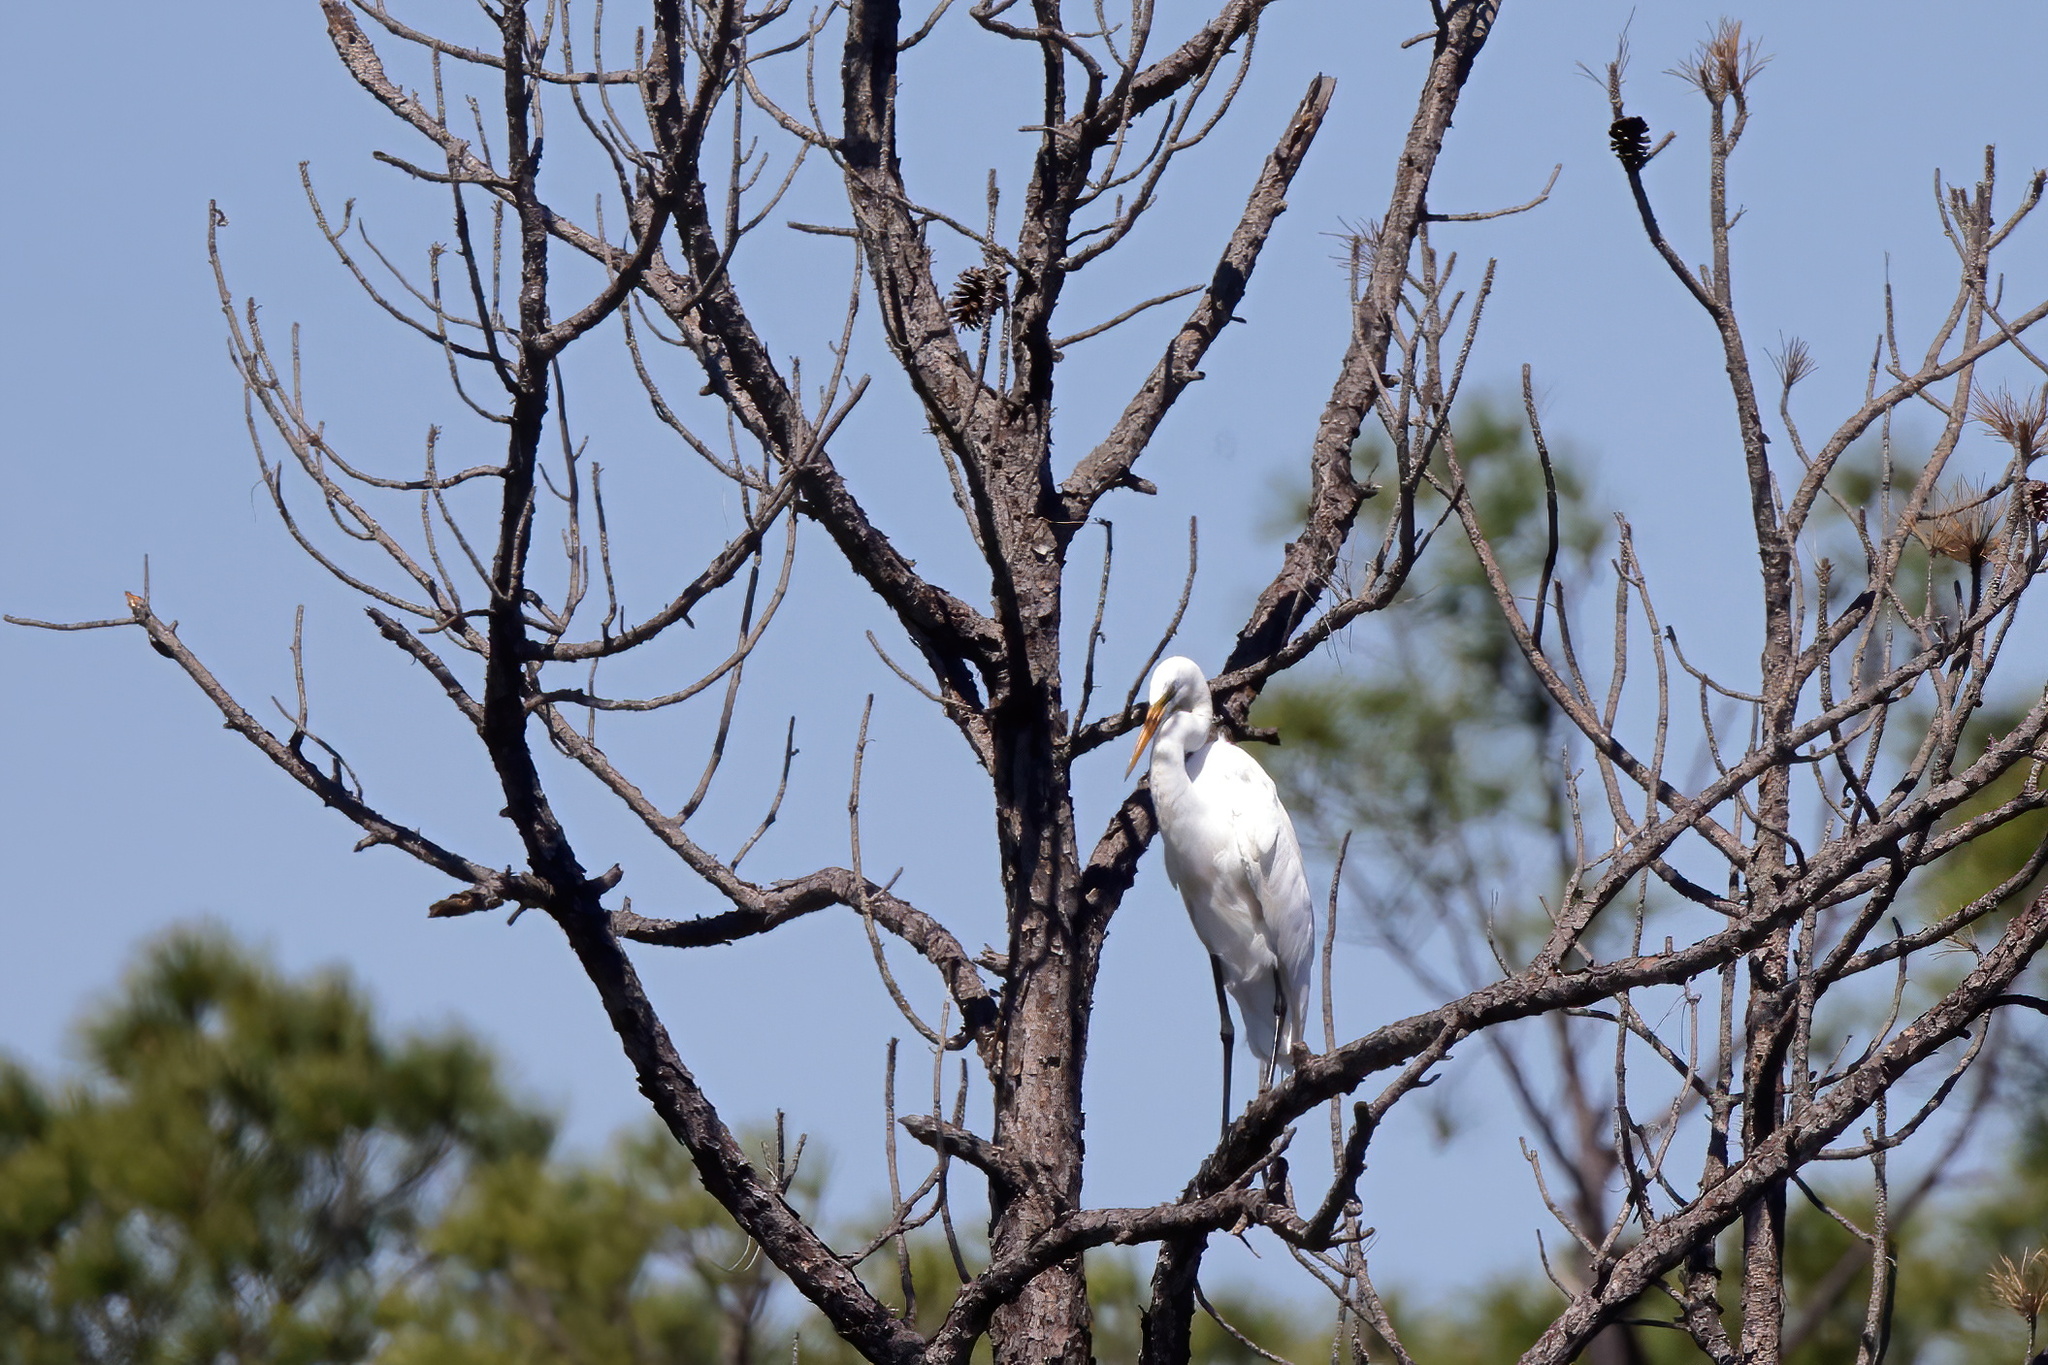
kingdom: Animalia
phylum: Chordata
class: Aves
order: Pelecaniformes
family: Ardeidae
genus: Ardea
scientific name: Ardea alba
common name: Great egret
